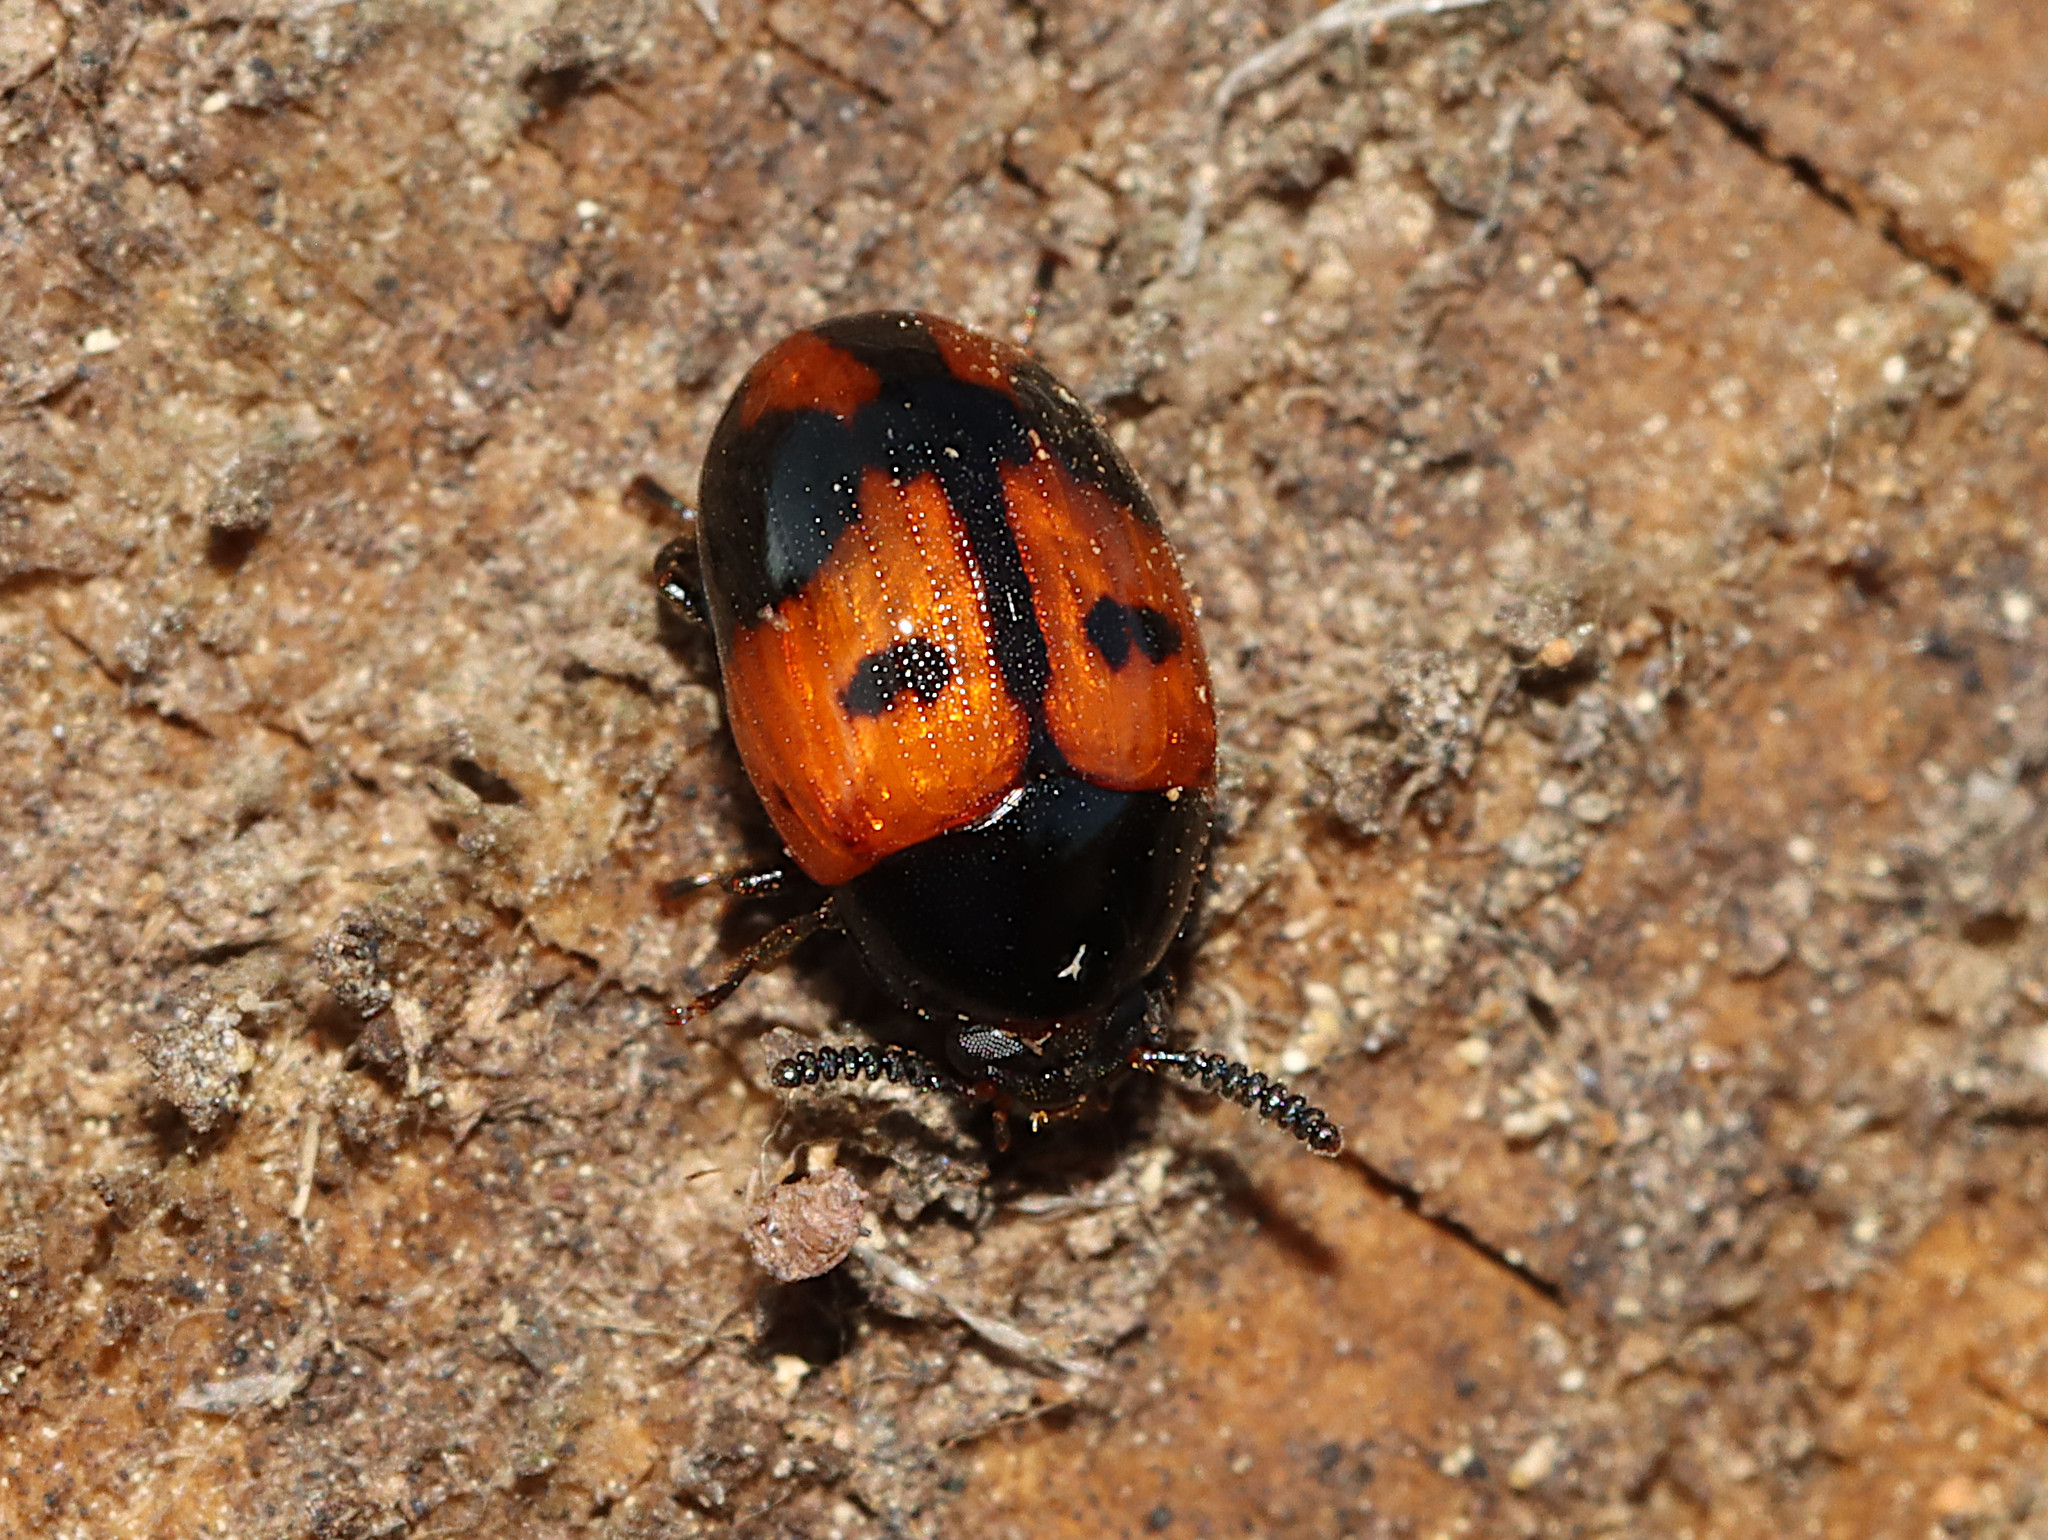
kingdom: Animalia
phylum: Arthropoda
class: Insecta
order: Coleoptera
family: Tenebrionidae
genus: Diaperis
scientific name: Diaperis maculata
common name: Darkling beetle
